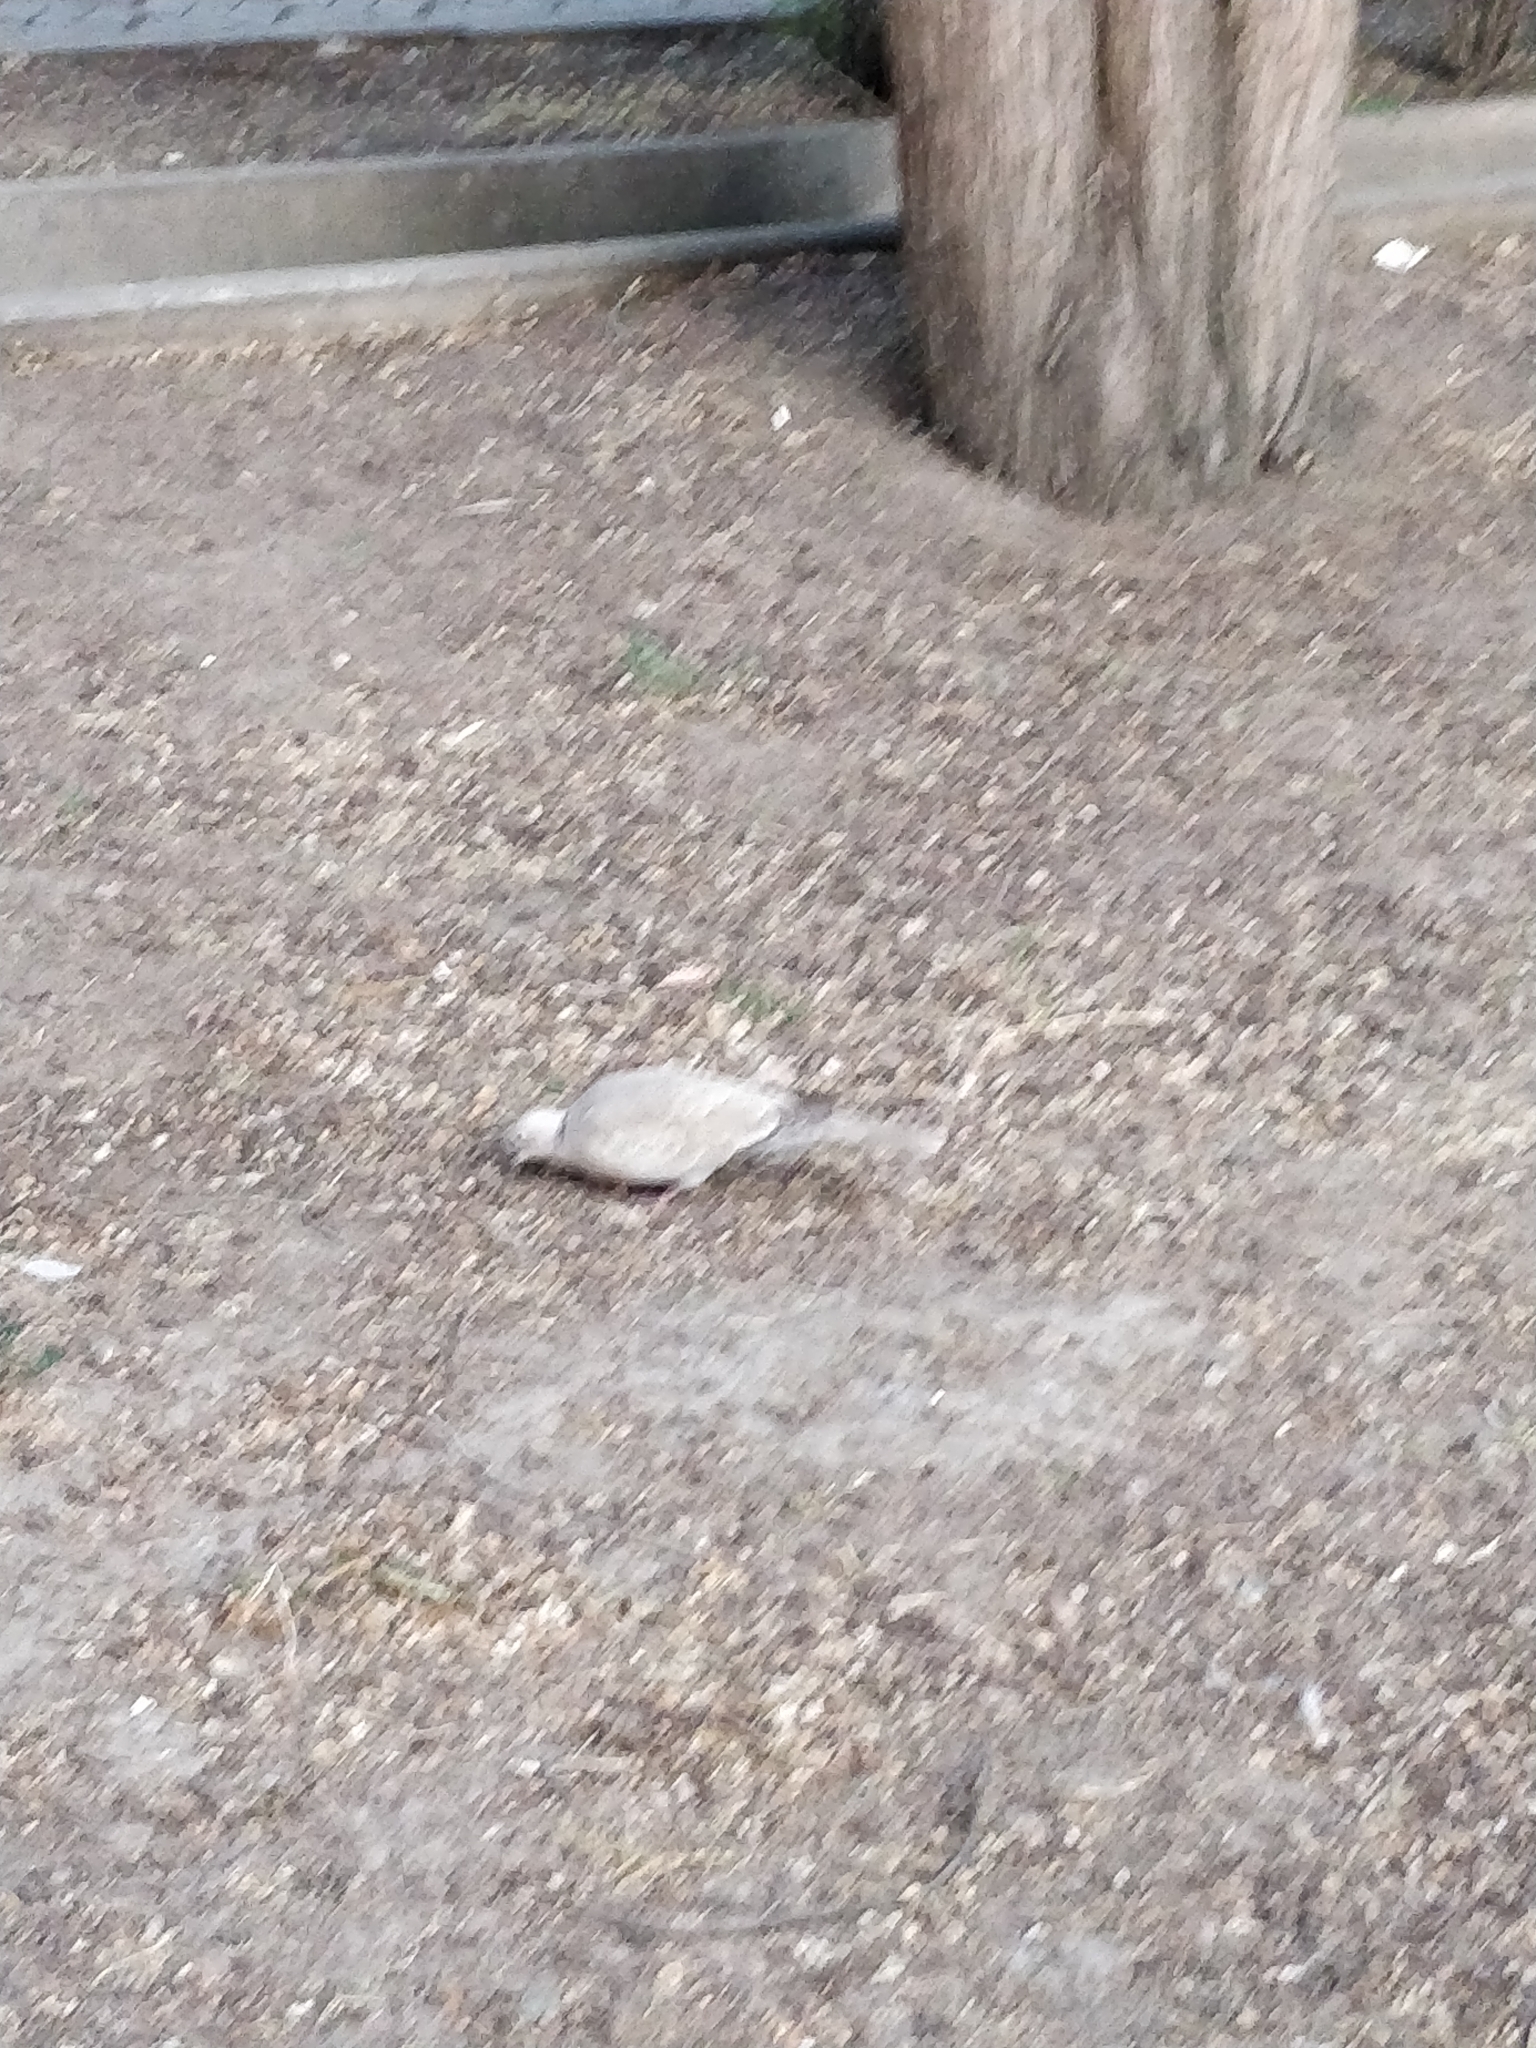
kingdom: Animalia
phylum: Chordata
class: Aves
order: Columbiformes
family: Columbidae
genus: Streptopelia
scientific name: Streptopelia decaocto
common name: Eurasian collared dove
